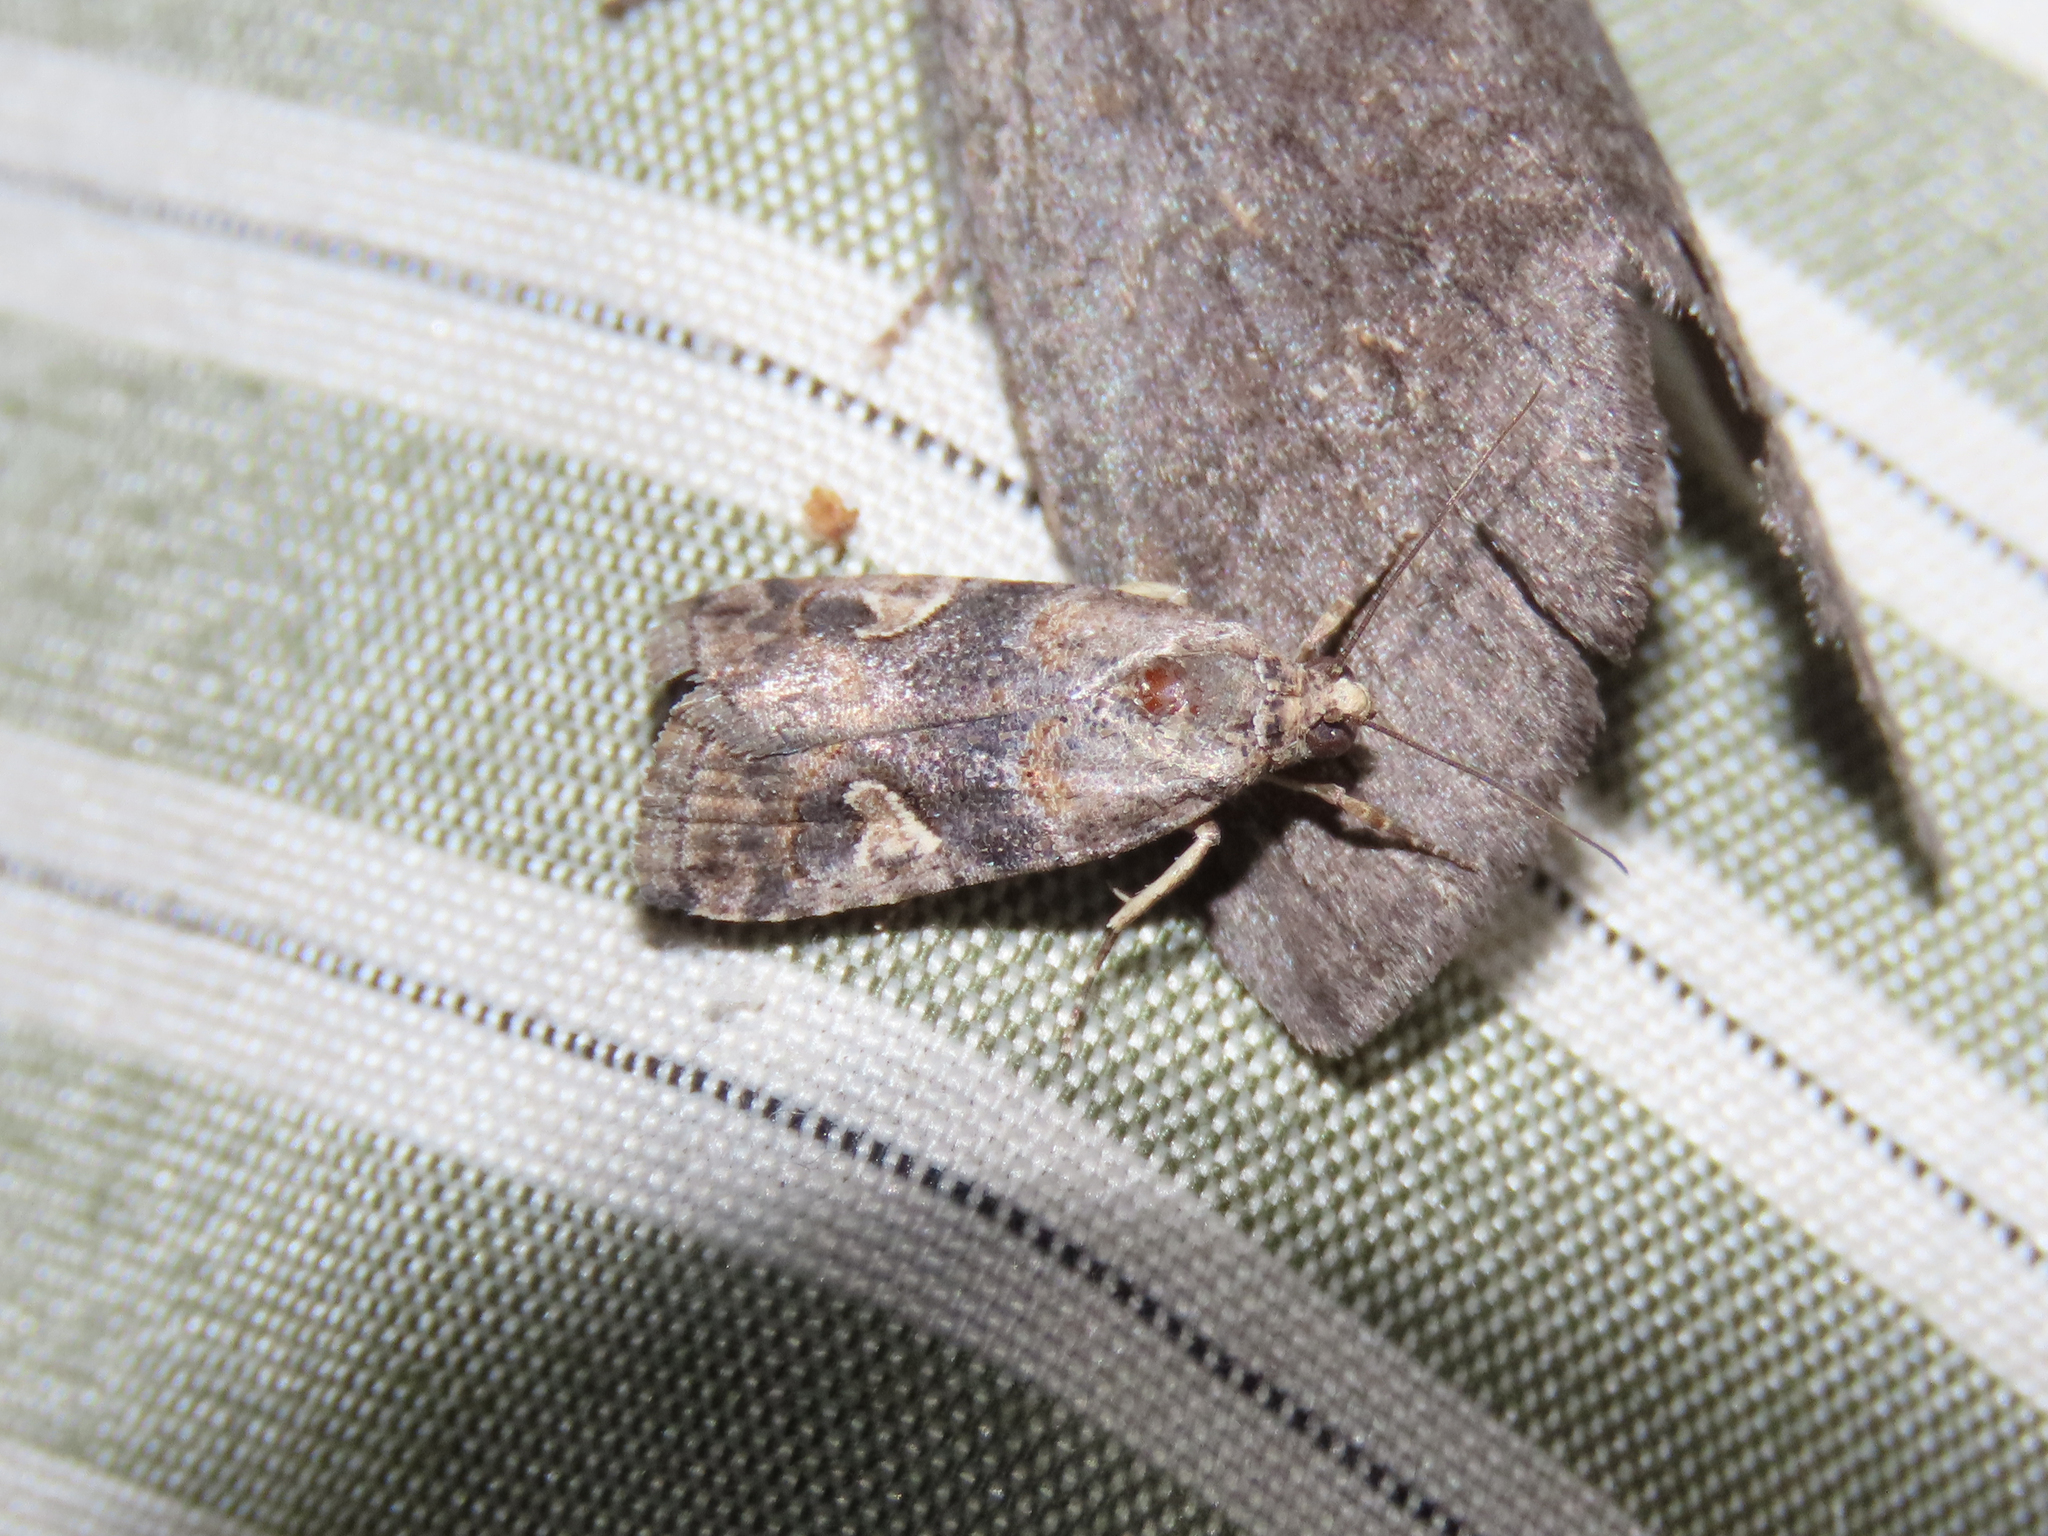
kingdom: Animalia
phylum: Arthropoda
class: Insecta
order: Lepidoptera
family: Noctuidae
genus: Metaponpneumata
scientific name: Metaponpneumata rogenhoferi
